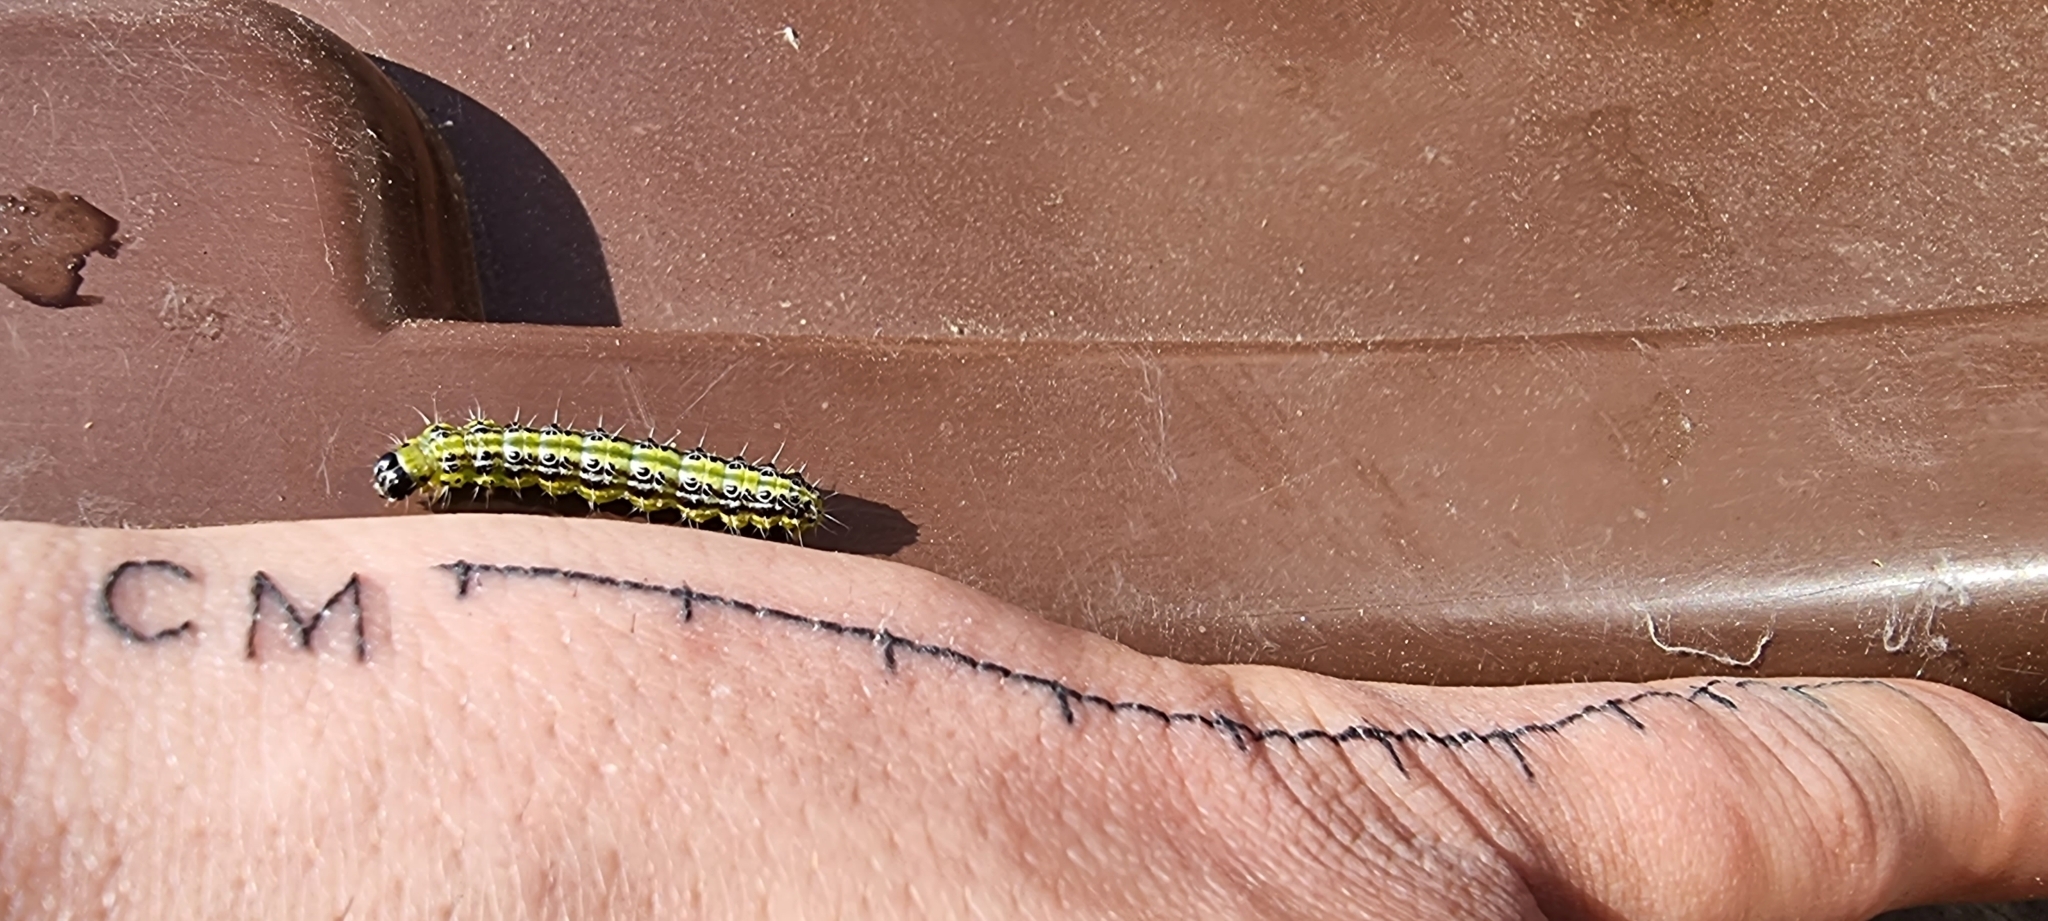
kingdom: Animalia
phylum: Arthropoda
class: Insecta
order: Lepidoptera
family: Crambidae
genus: Cydalima
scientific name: Cydalima perspectalis
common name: Box tree moth
